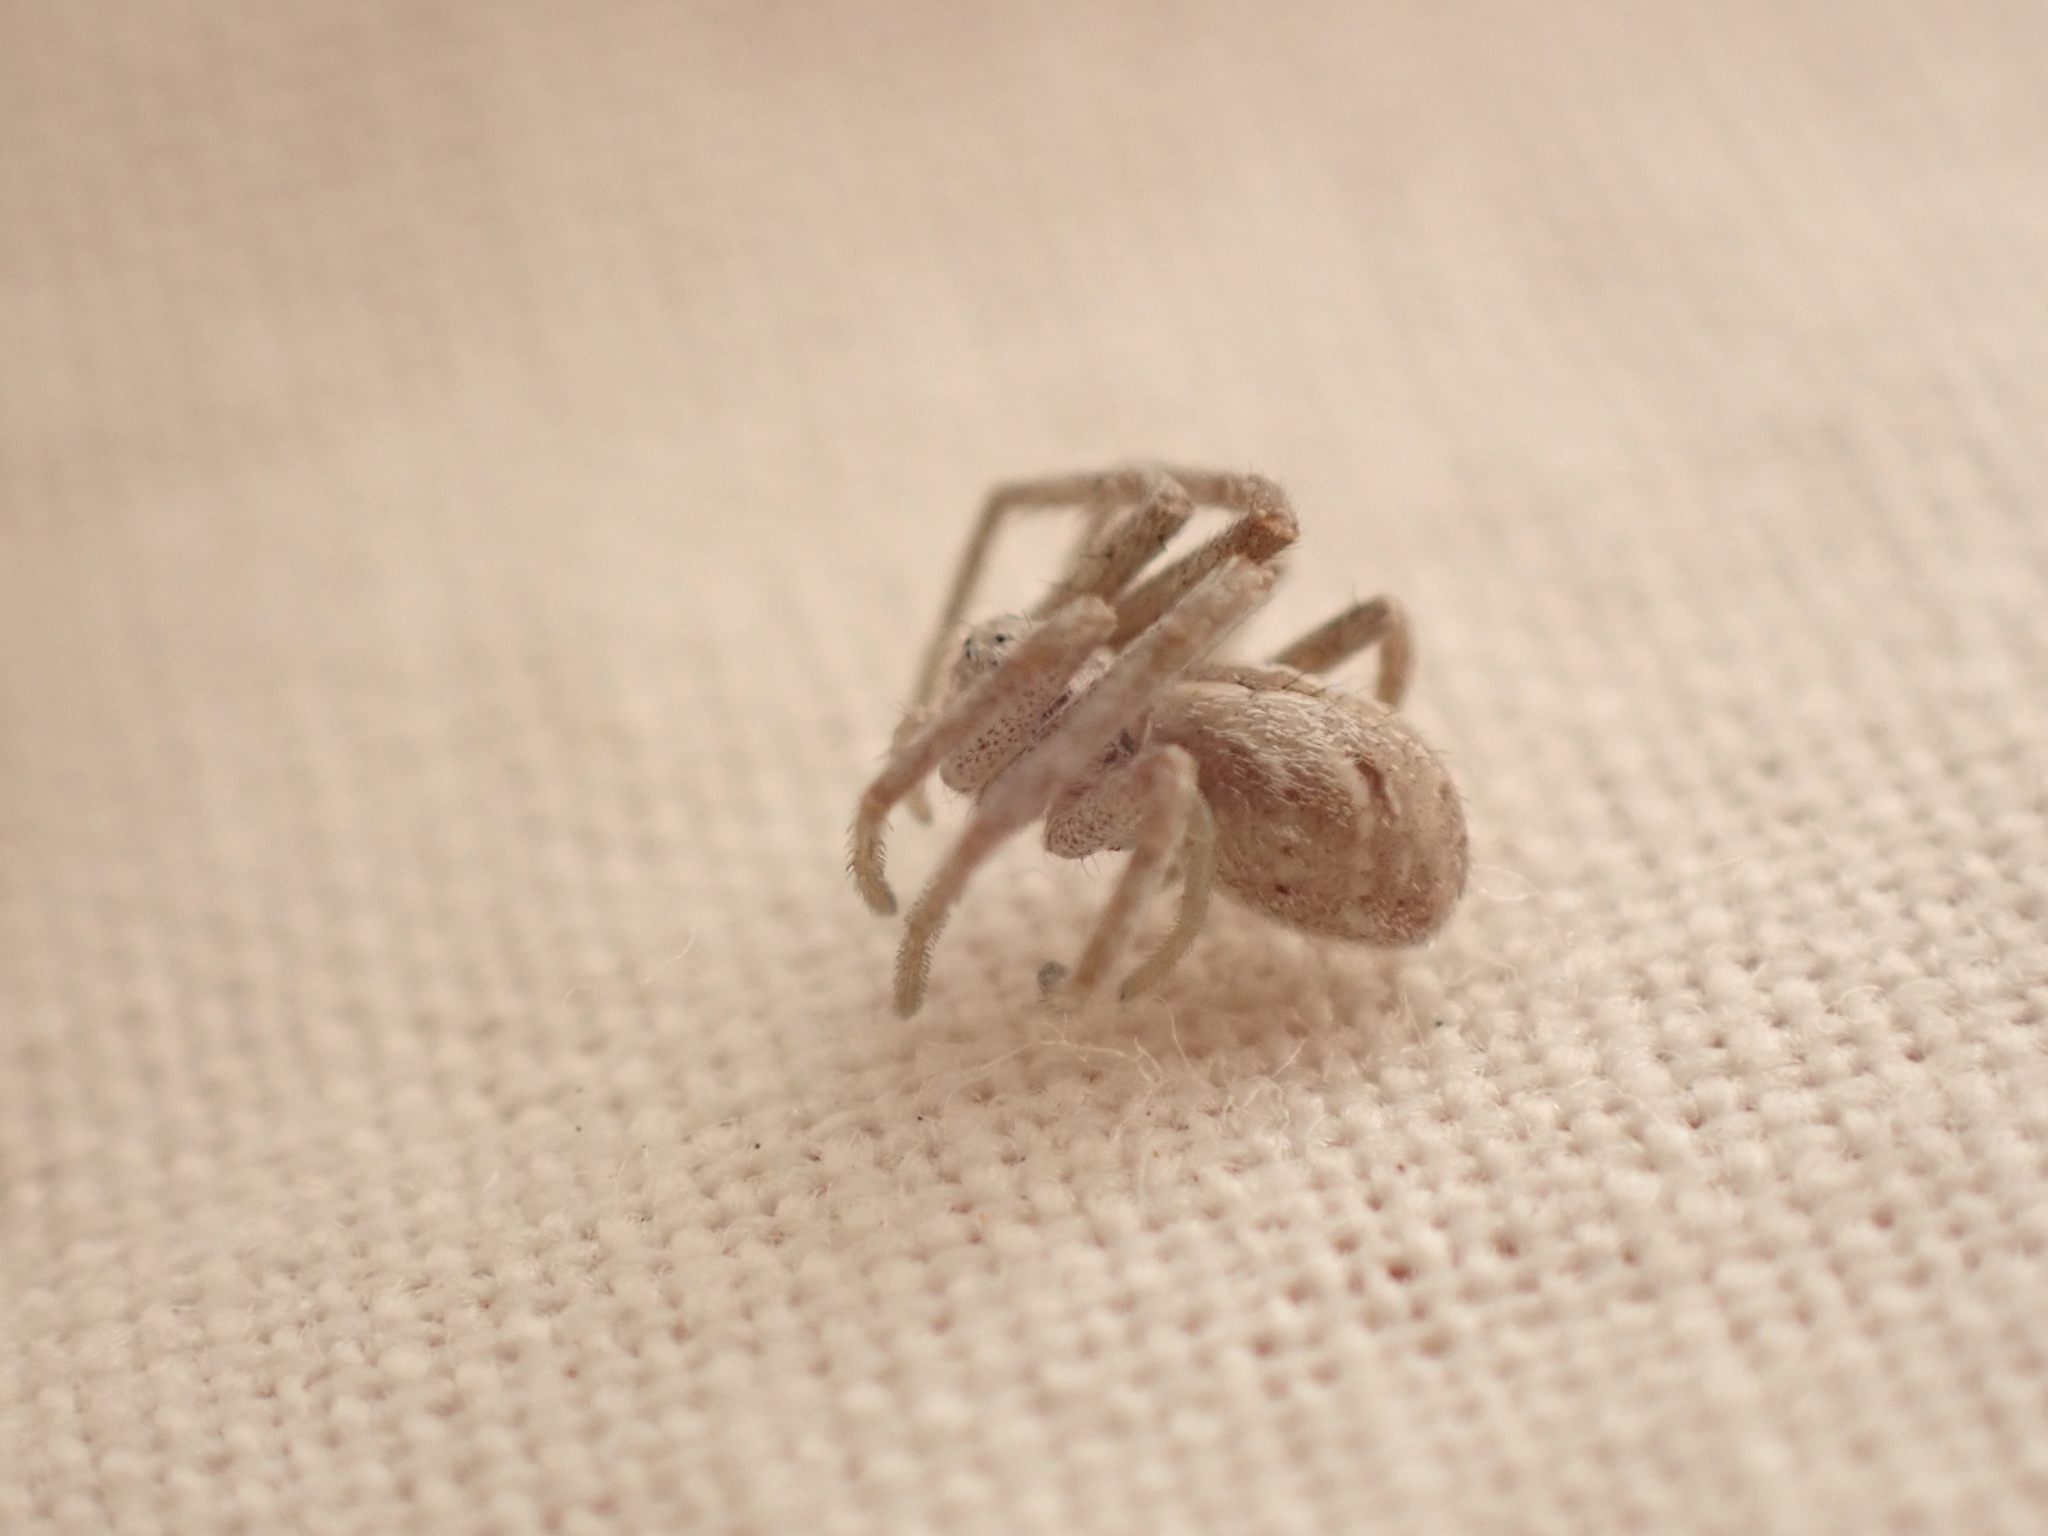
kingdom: Animalia
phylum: Arthropoda
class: Arachnida
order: Araneae
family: Philodromidae
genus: Rhysodromus
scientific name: Rhysodromus histrio
